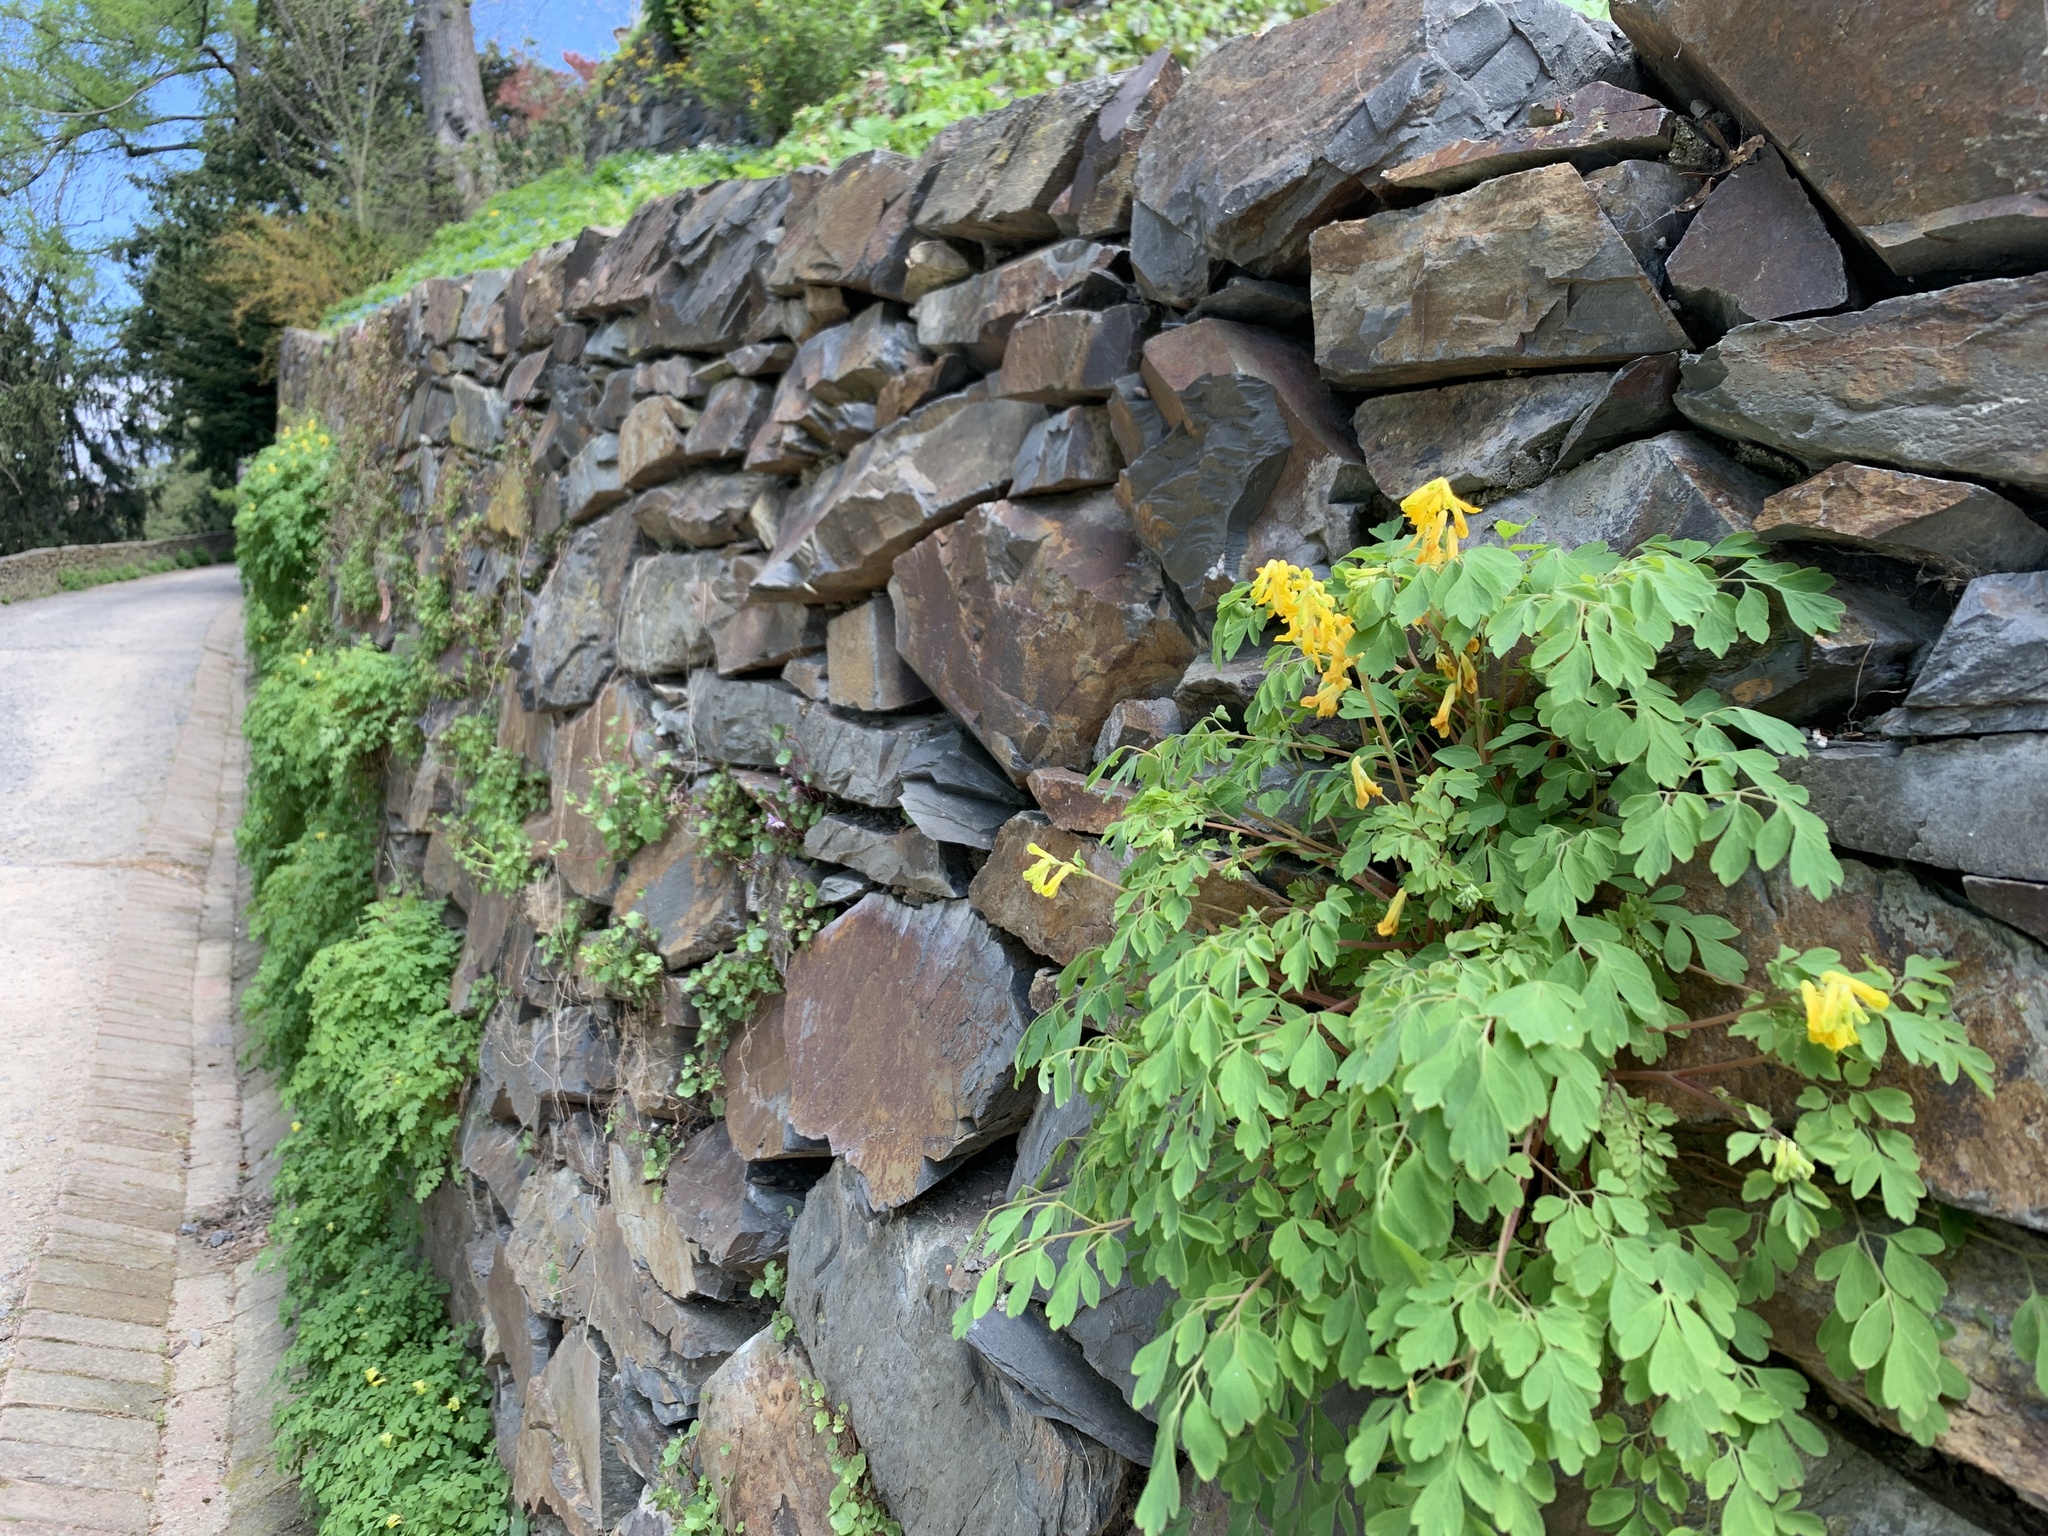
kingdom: Plantae
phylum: Tracheophyta
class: Magnoliopsida
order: Ranunculales
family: Papaveraceae
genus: Pseudofumaria
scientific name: Pseudofumaria lutea
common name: Yellow corydalis
